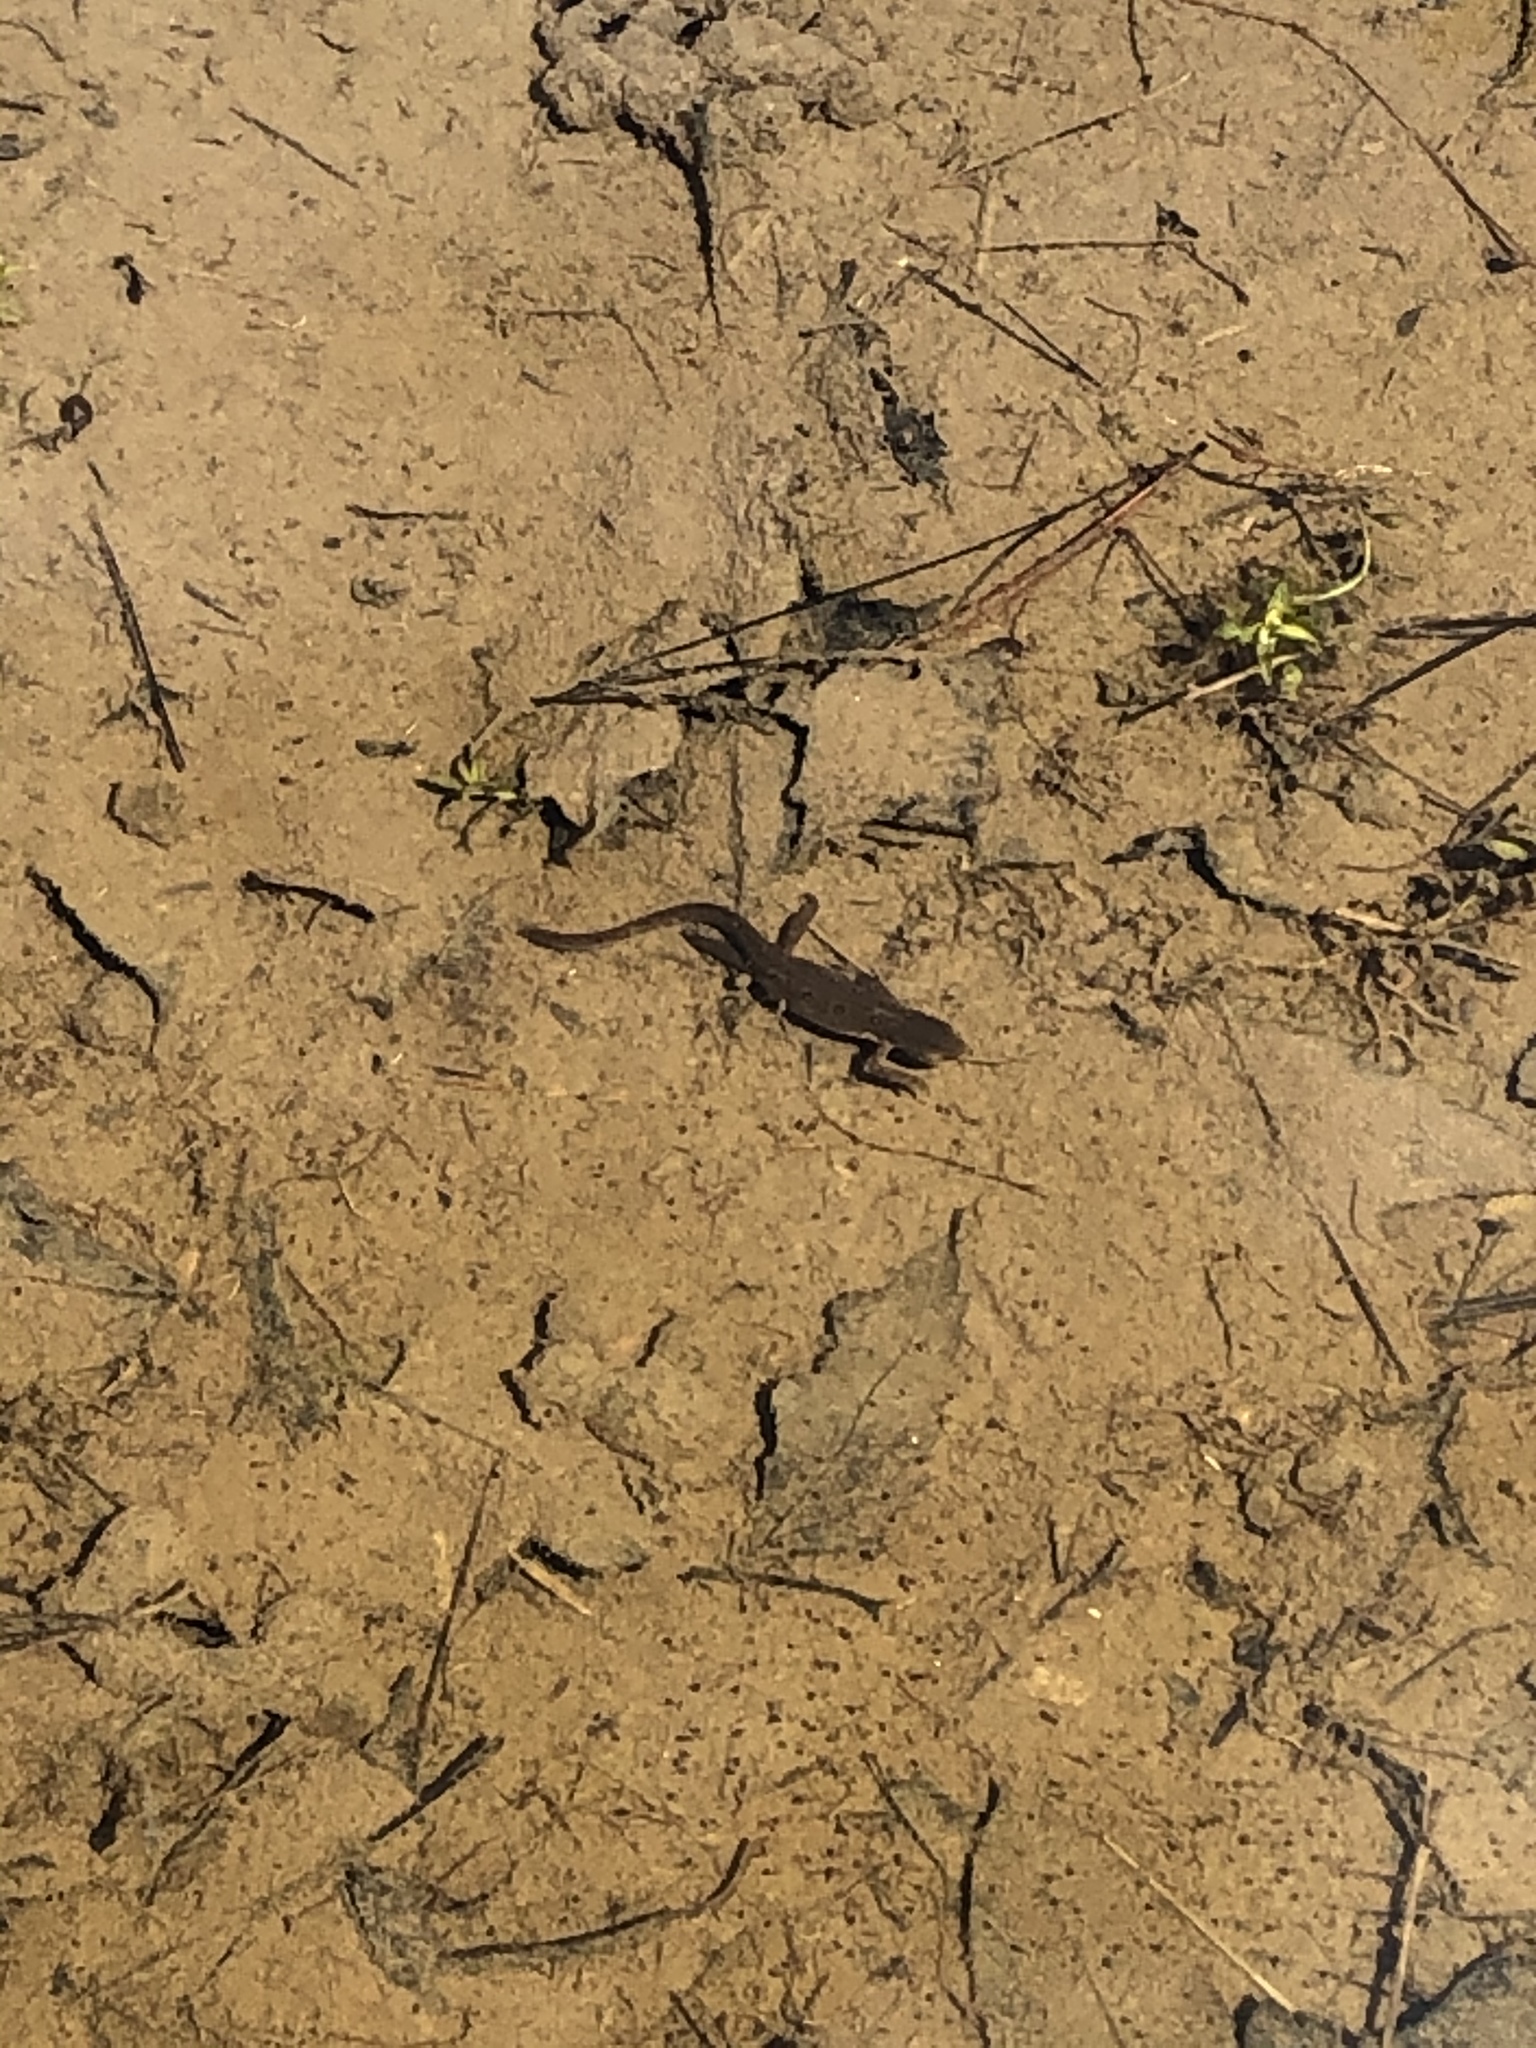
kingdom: Animalia
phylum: Chordata
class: Amphibia
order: Caudata
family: Salamandridae
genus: Notophthalmus
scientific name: Notophthalmus viridescens
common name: Eastern newt
